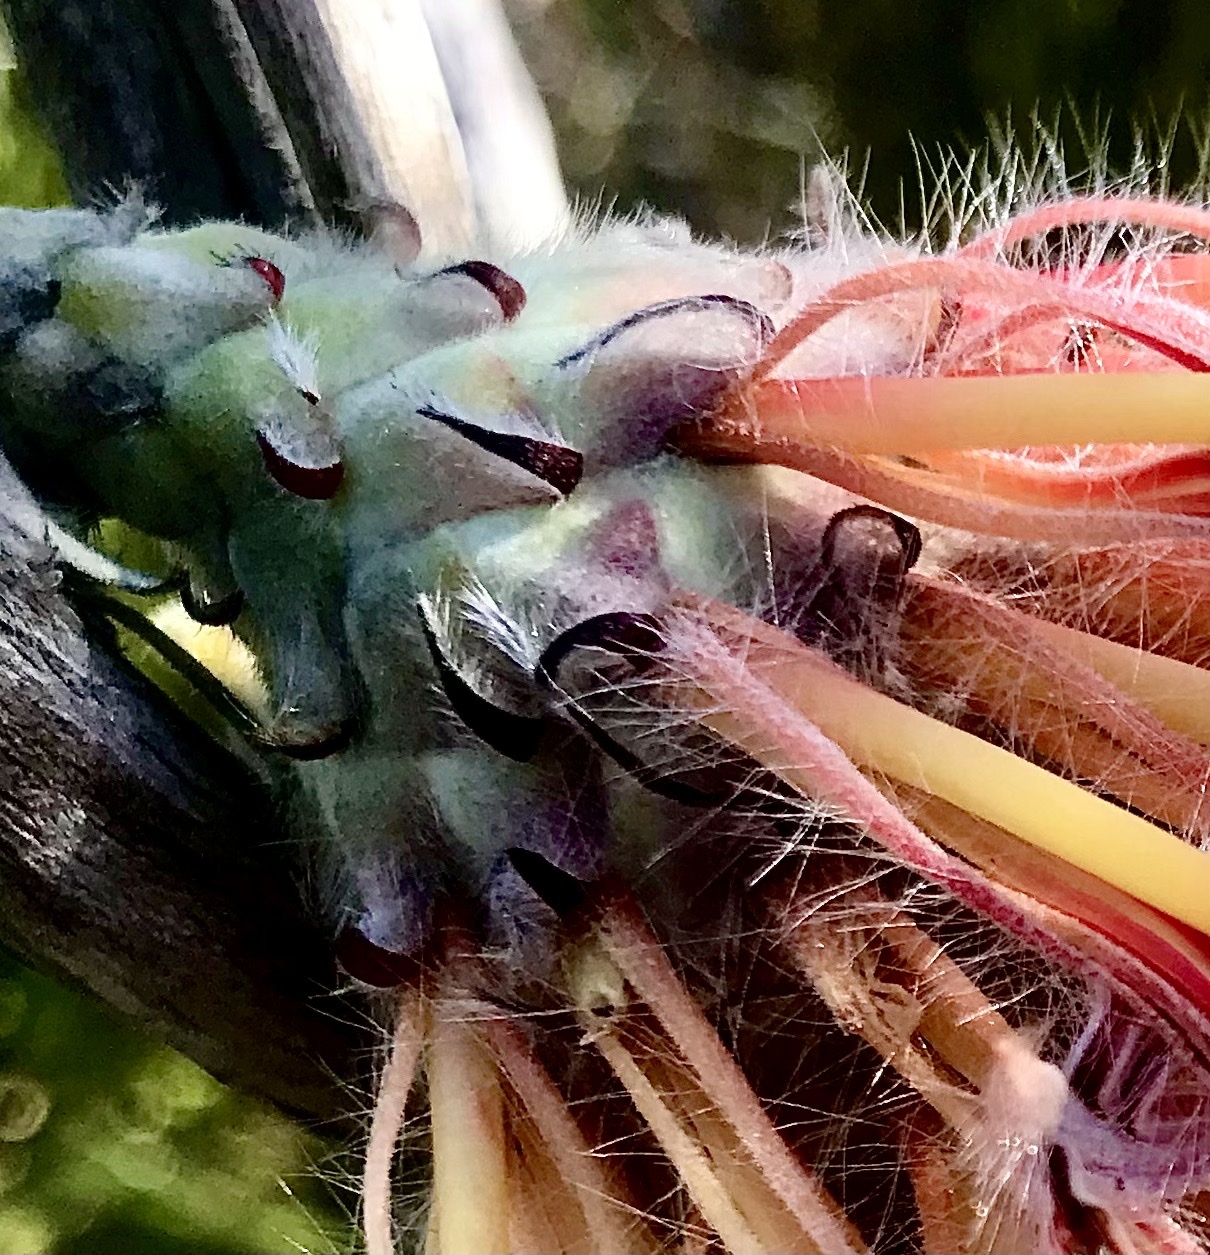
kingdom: Plantae
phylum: Tracheophyta
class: Magnoliopsida
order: Proteales
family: Proteaceae
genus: Leucospermum
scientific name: Leucospermum glabrum
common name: Outeniqua pincushion
